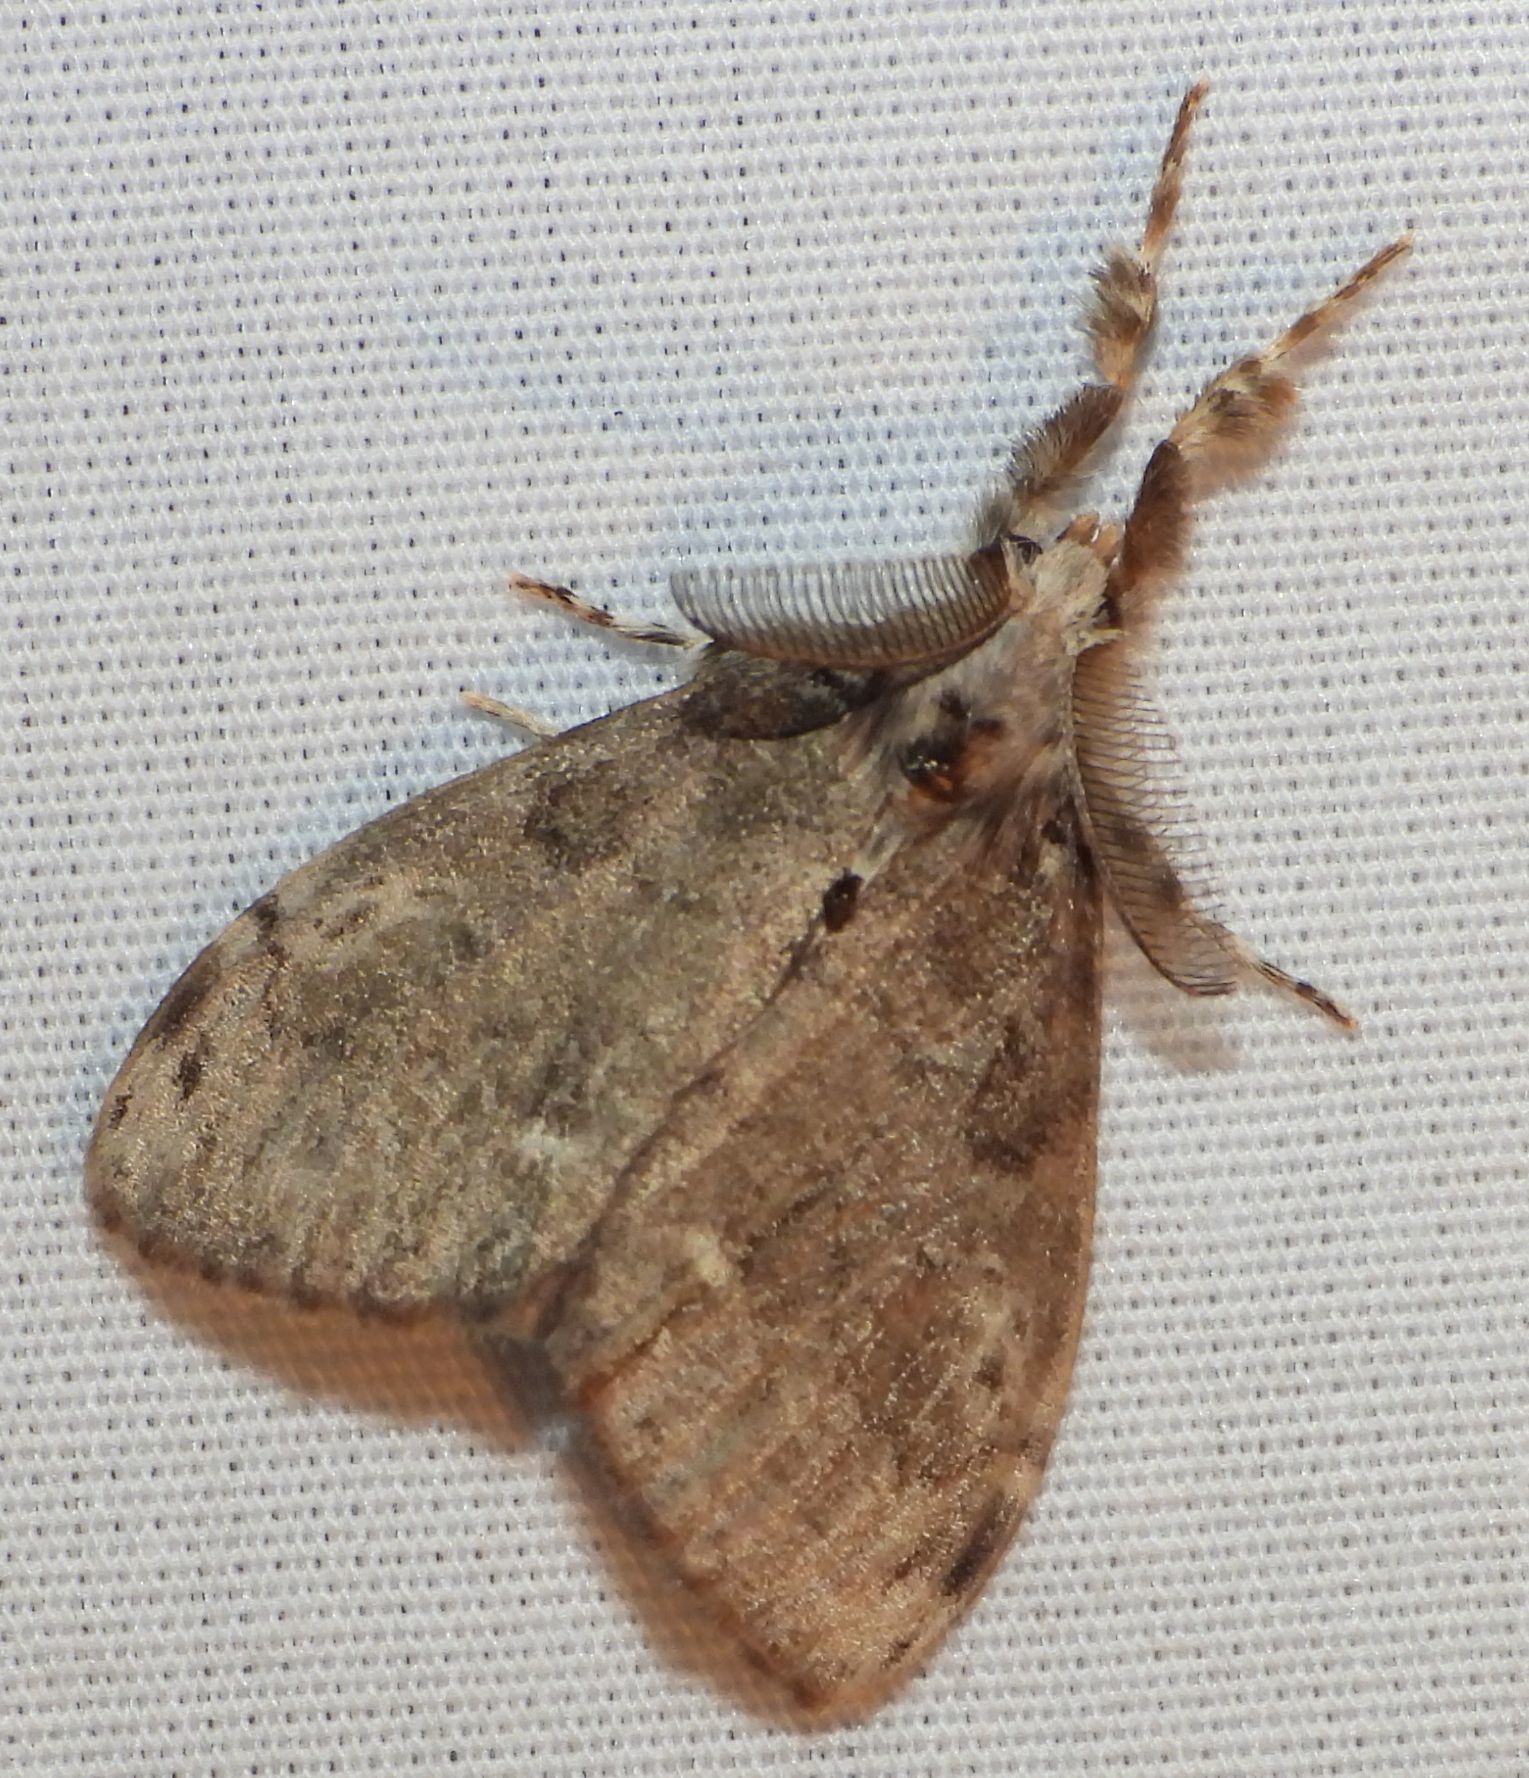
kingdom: Animalia
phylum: Arthropoda
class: Insecta
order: Lepidoptera
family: Erebidae
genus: Orgyia
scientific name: Orgyia leucostigma
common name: White-marked tussock moth
